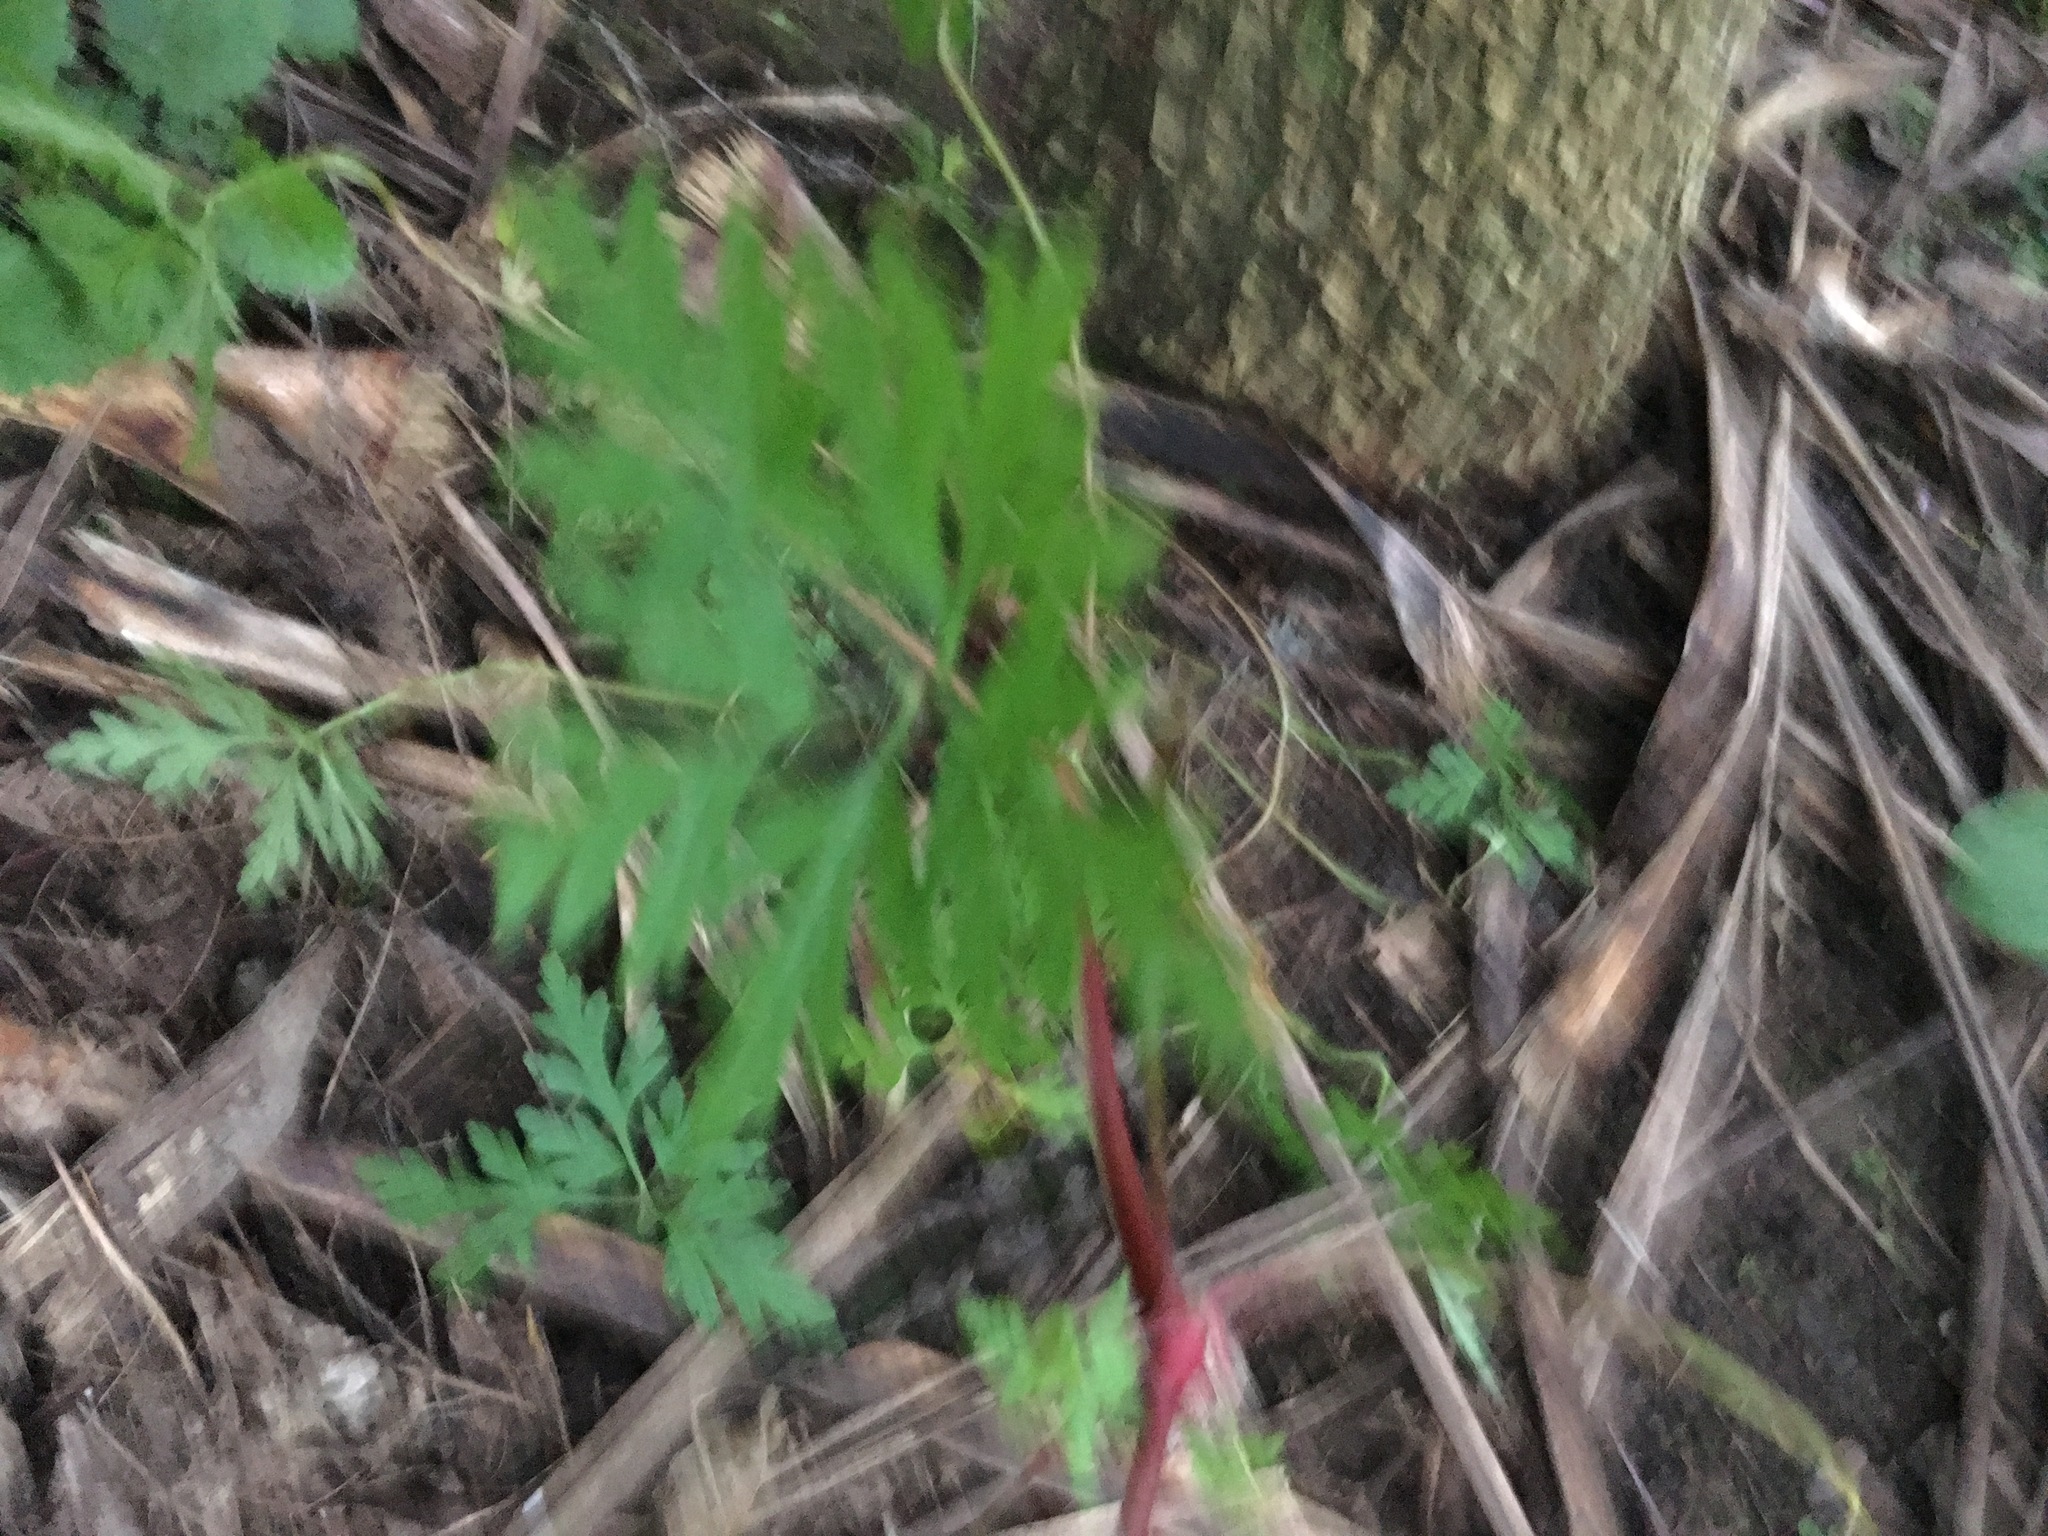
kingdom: Plantae
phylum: Tracheophyta
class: Magnoliopsida
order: Geraniales
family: Geraniaceae
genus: Geranium
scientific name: Geranium robertianum
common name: Herb-robert
